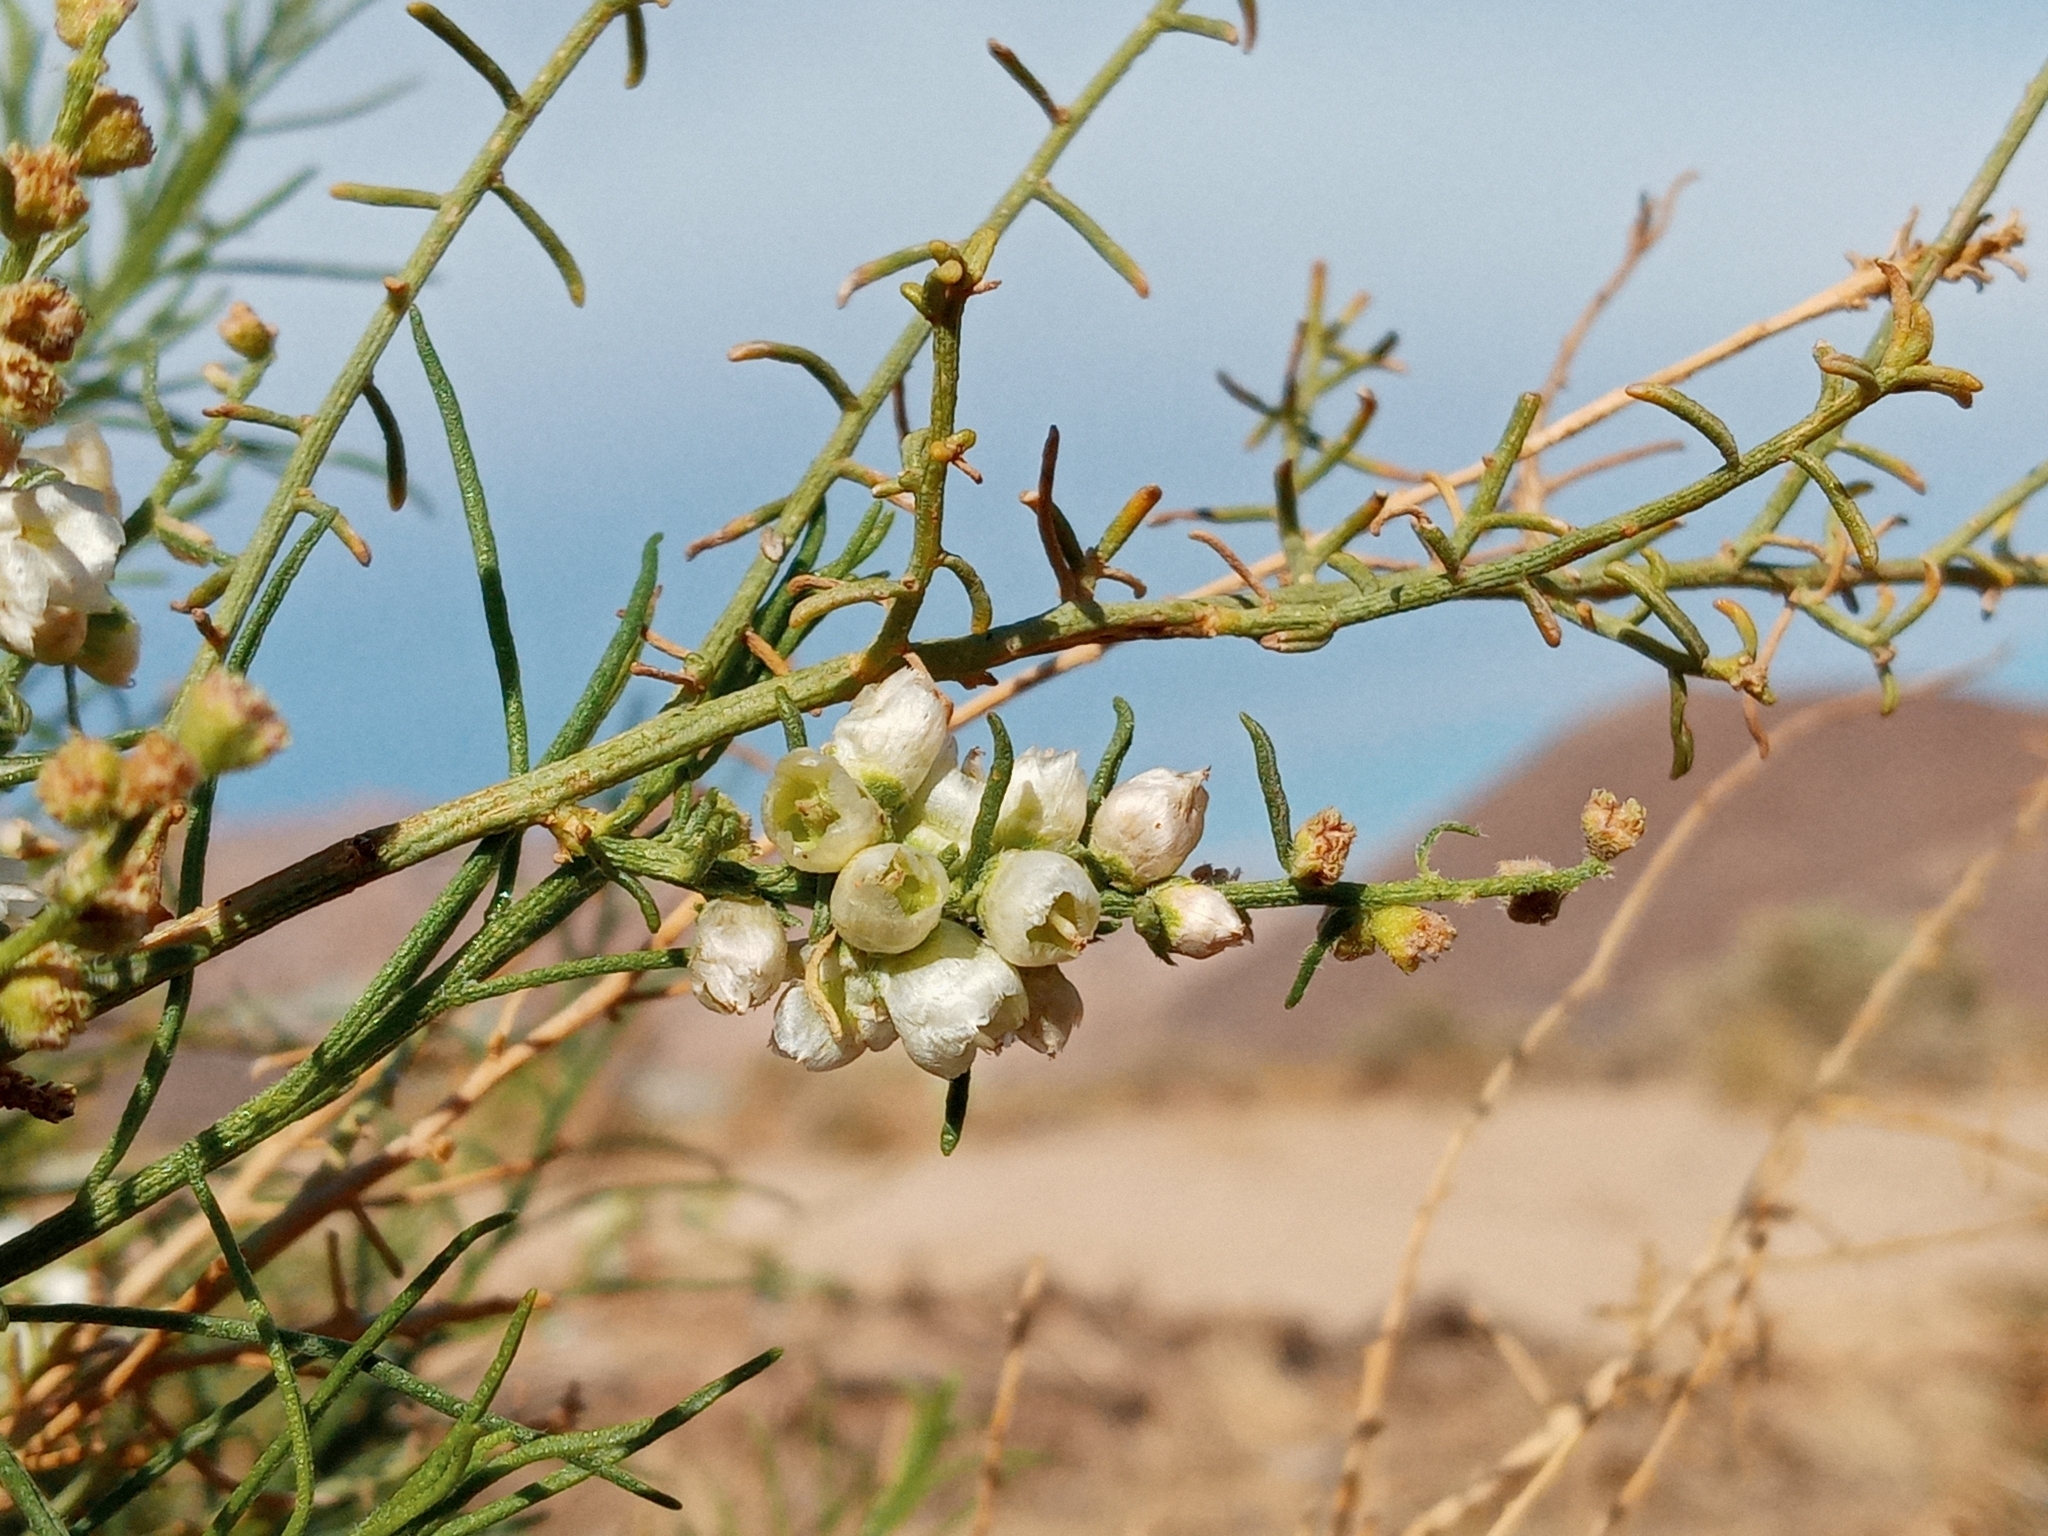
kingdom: Plantae
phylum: Tracheophyta
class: Magnoliopsida
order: Asterales
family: Asteraceae
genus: Ambrosia
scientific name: Ambrosia salsola
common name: Burrobrush
